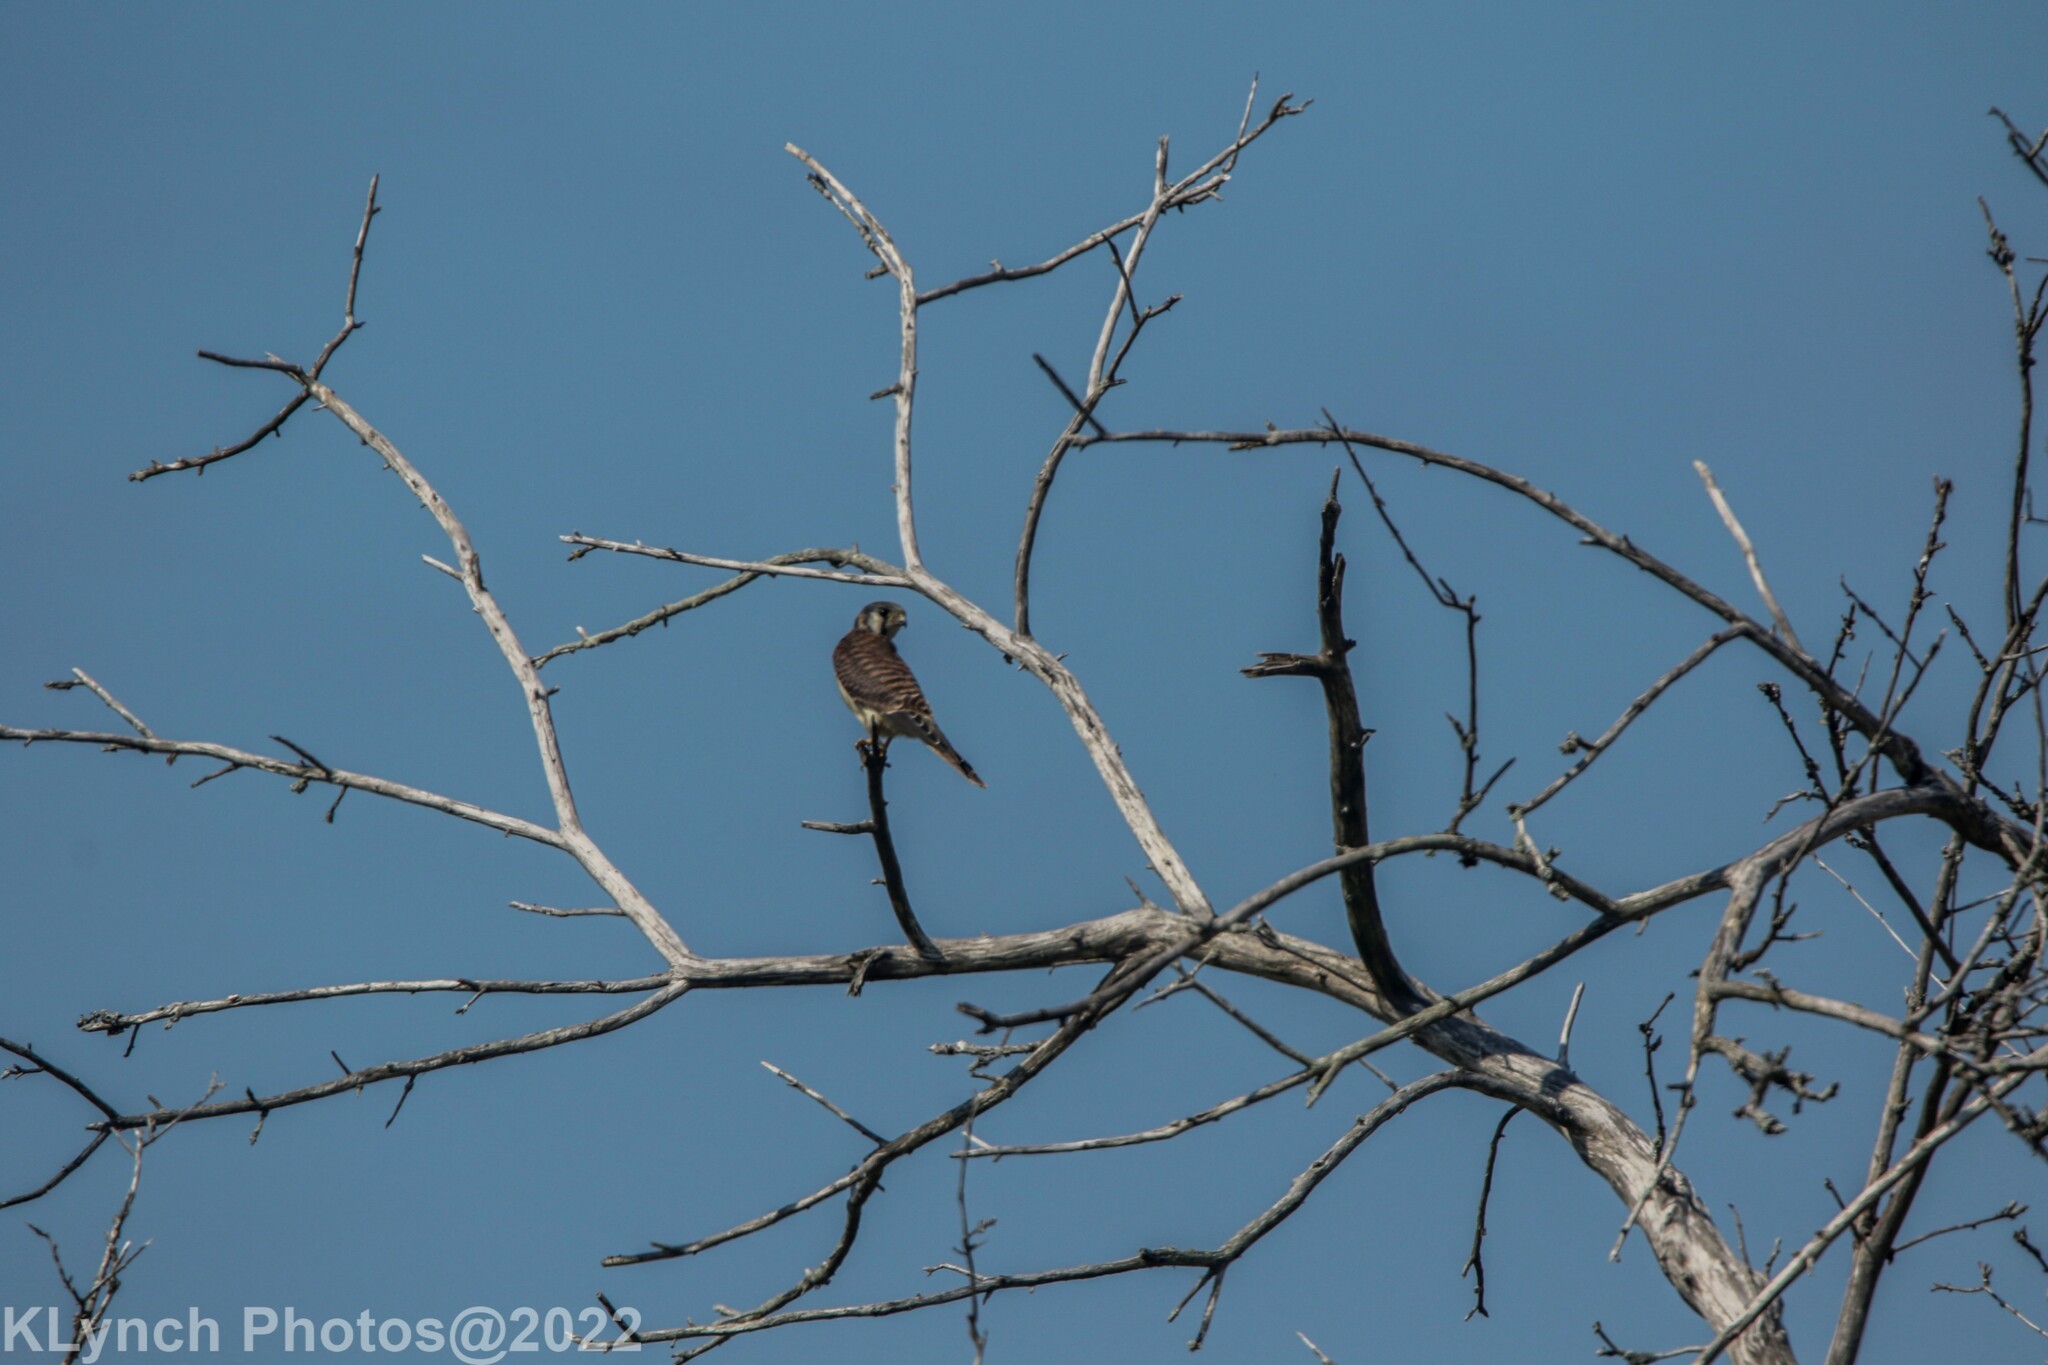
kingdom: Animalia
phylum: Chordata
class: Aves
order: Falconiformes
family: Falconidae
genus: Falco
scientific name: Falco sparverius
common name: American kestrel
